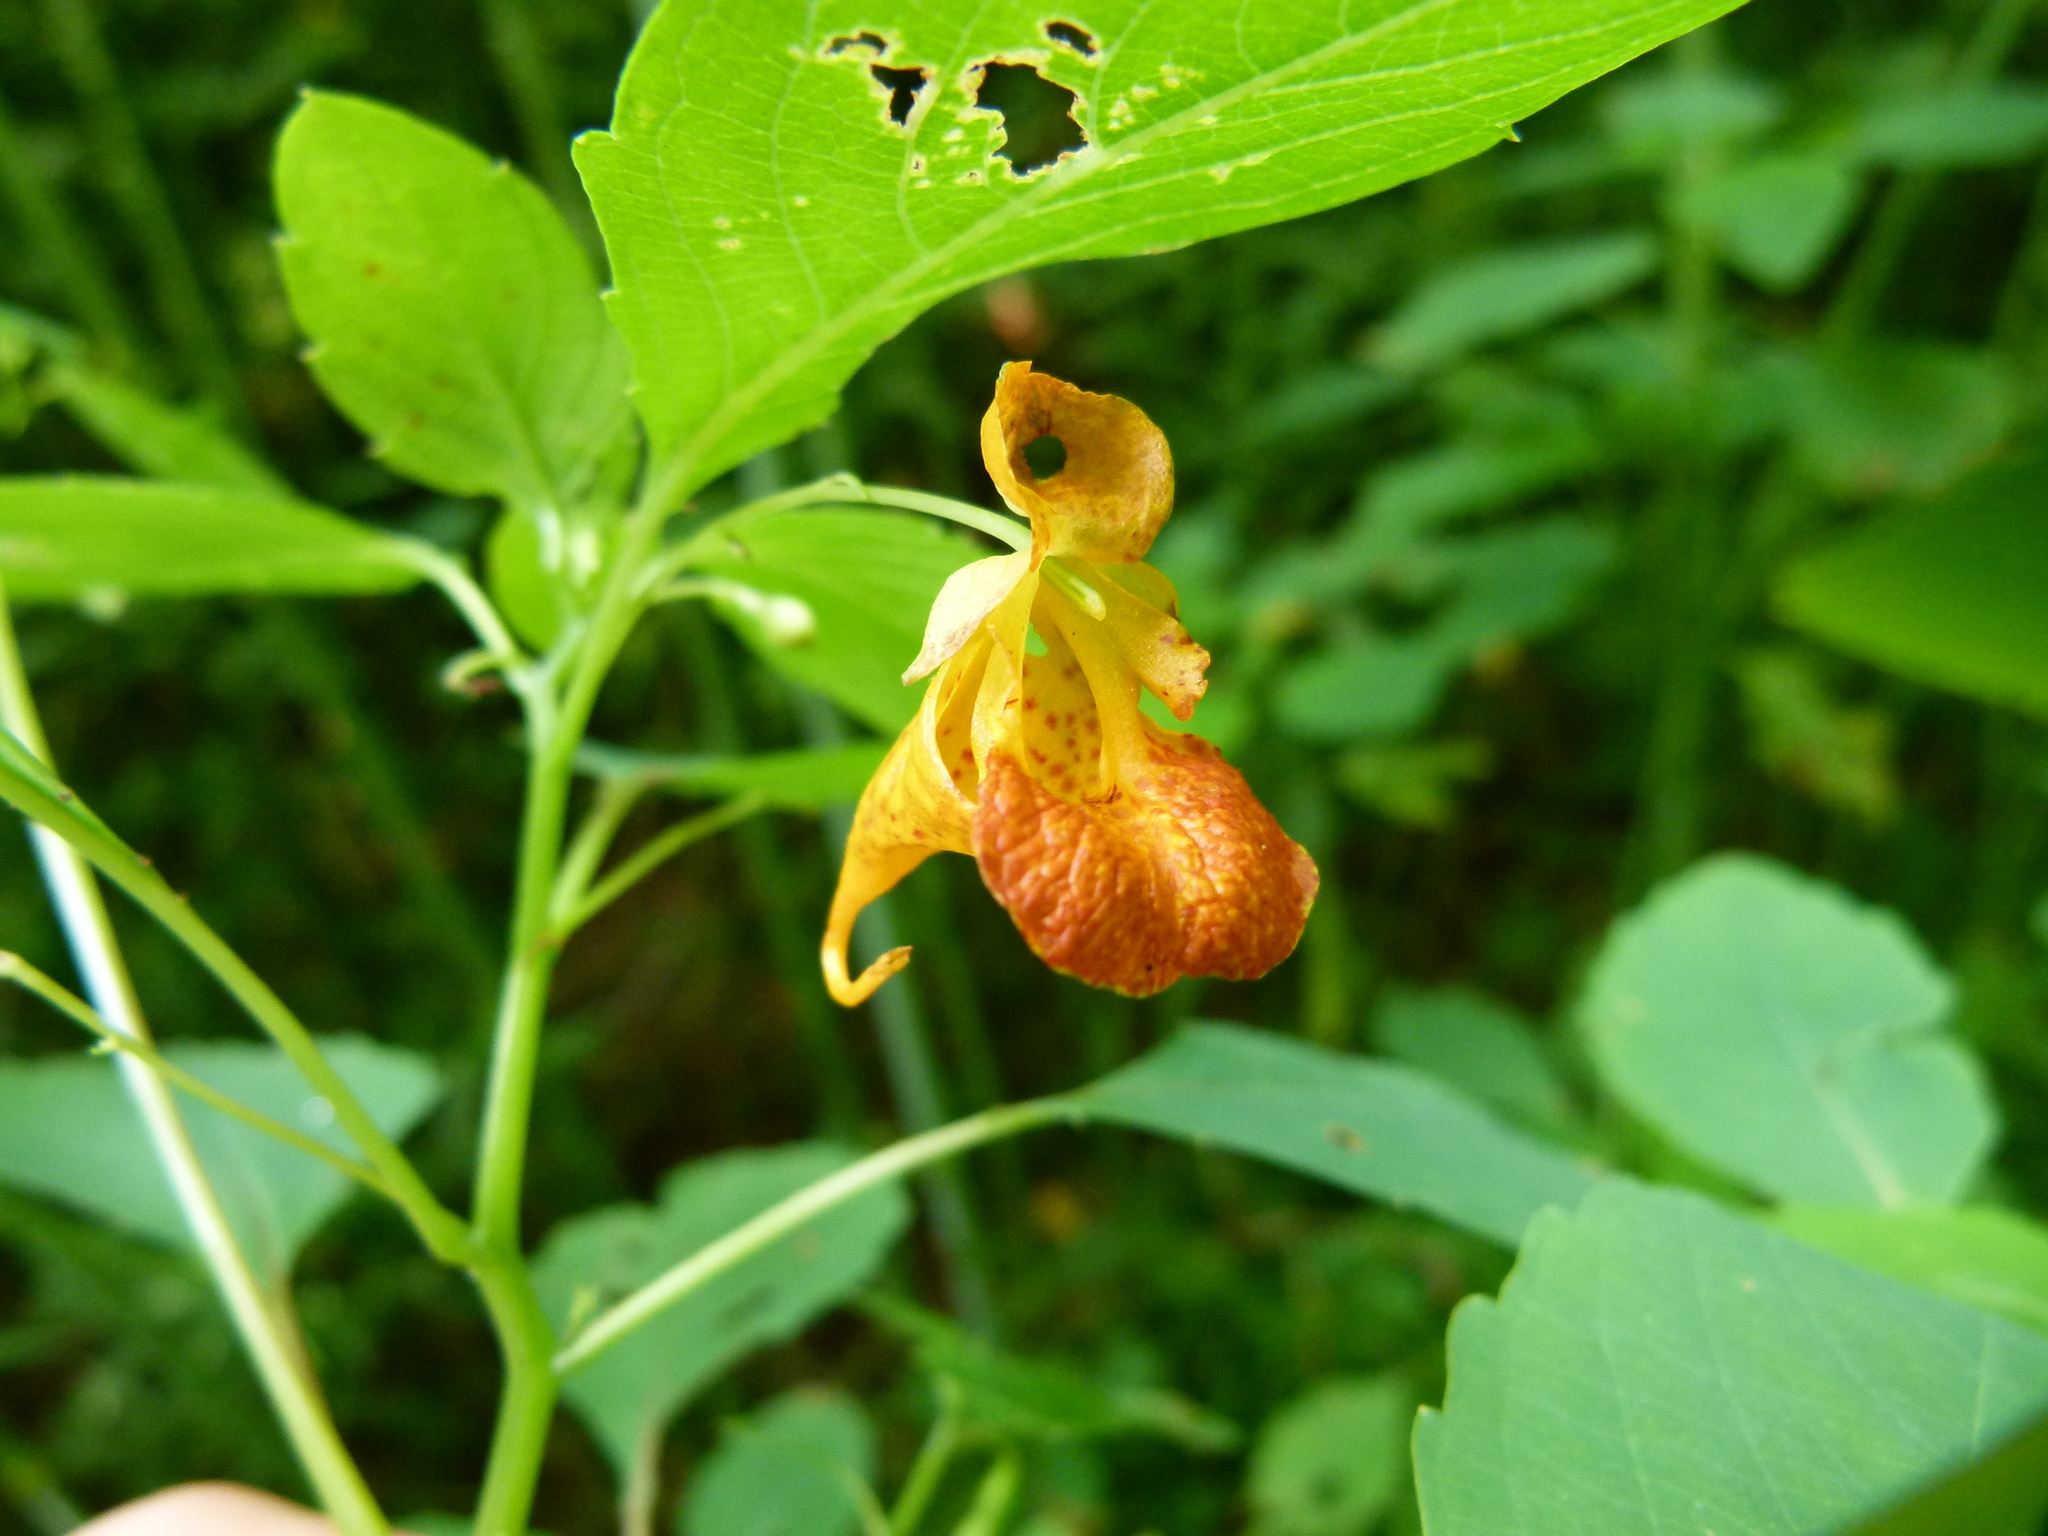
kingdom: Plantae
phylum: Tracheophyta
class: Magnoliopsida
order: Ericales
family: Balsaminaceae
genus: Impatiens
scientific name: Impatiens capensis
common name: Orange balsam
